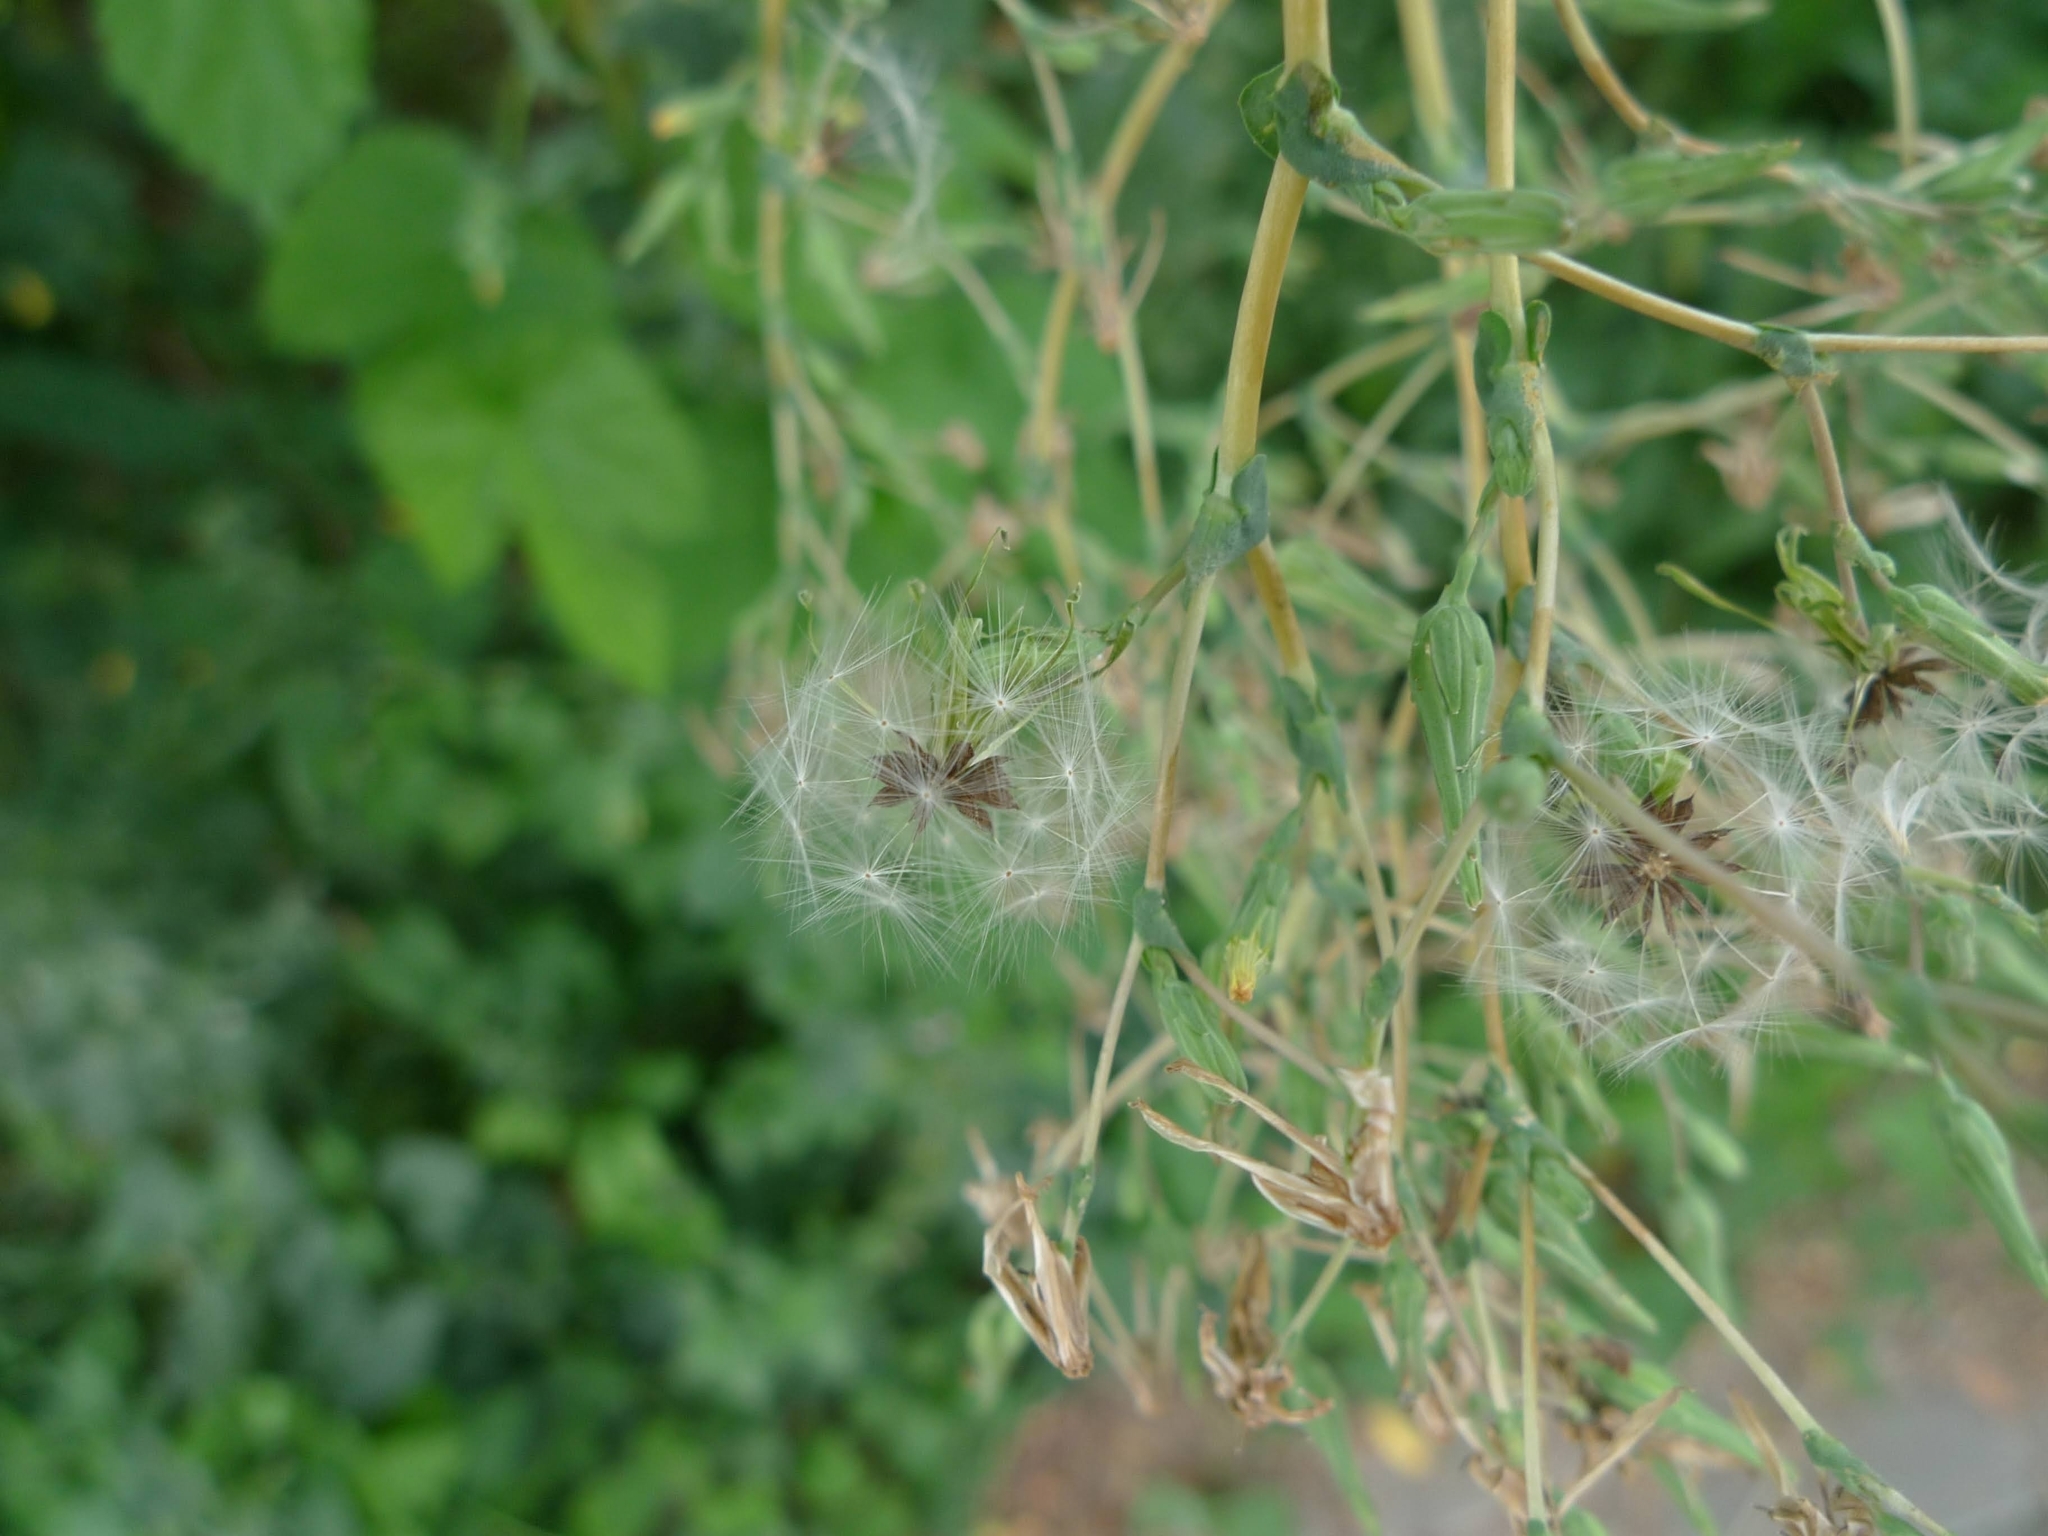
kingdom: Plantae
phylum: Tracheophyta
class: Magnoliopsida
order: Asterales
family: Asteraceae
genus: Lactuca
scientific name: Lactuca serriola
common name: Prickly lettuce
